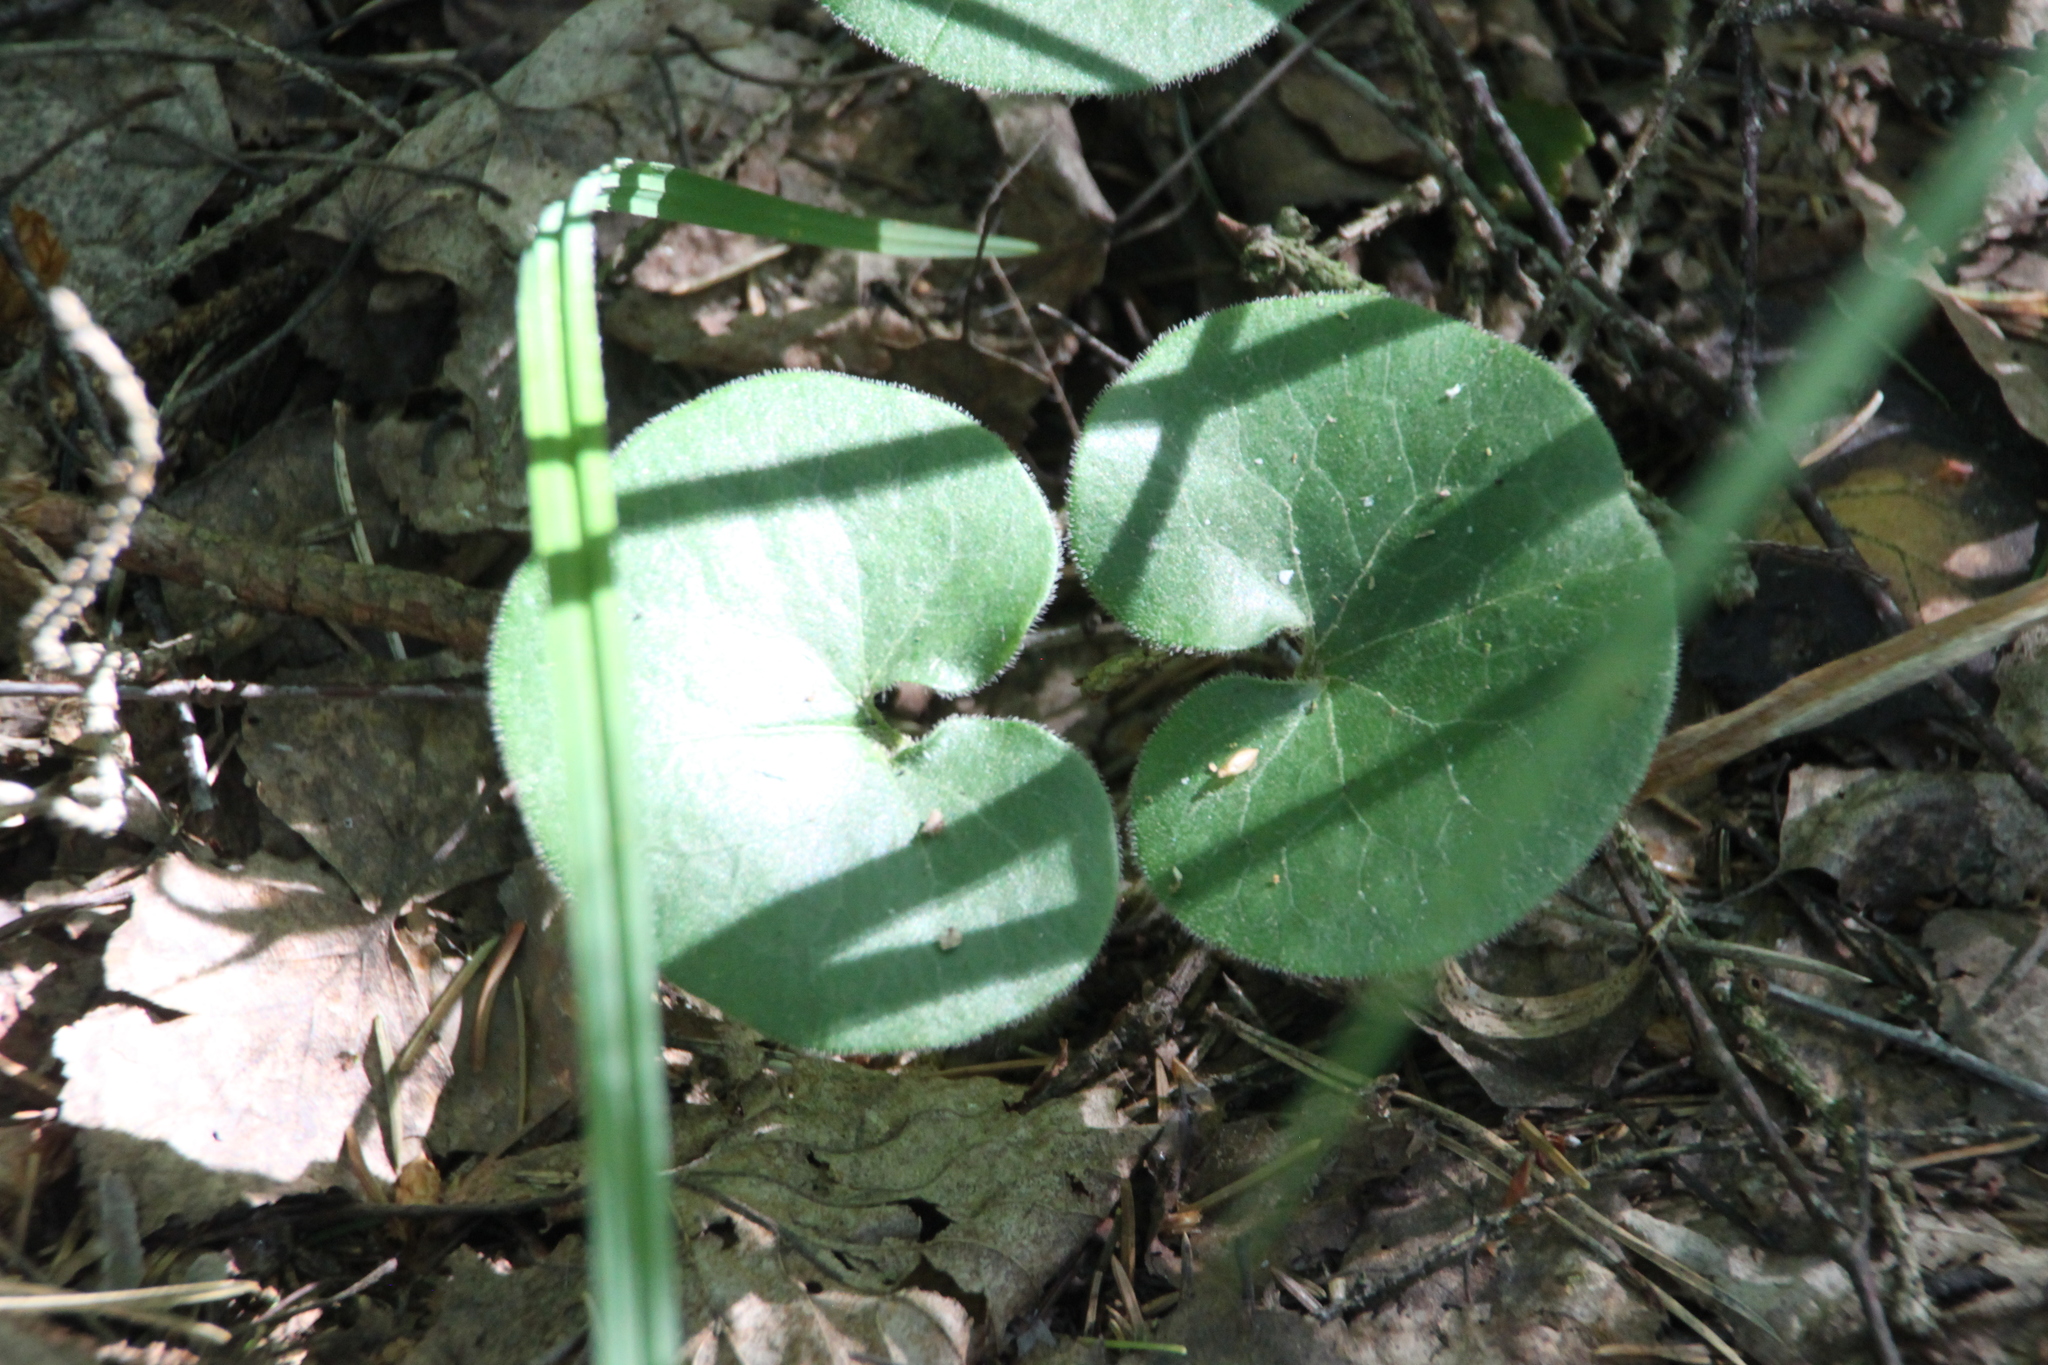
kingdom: Plantae
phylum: Tracheophyta
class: Magnoliopsida
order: Piperales
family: Aristolochiaceae
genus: Asarum
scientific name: Asarum europaeum
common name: Asarabacca
